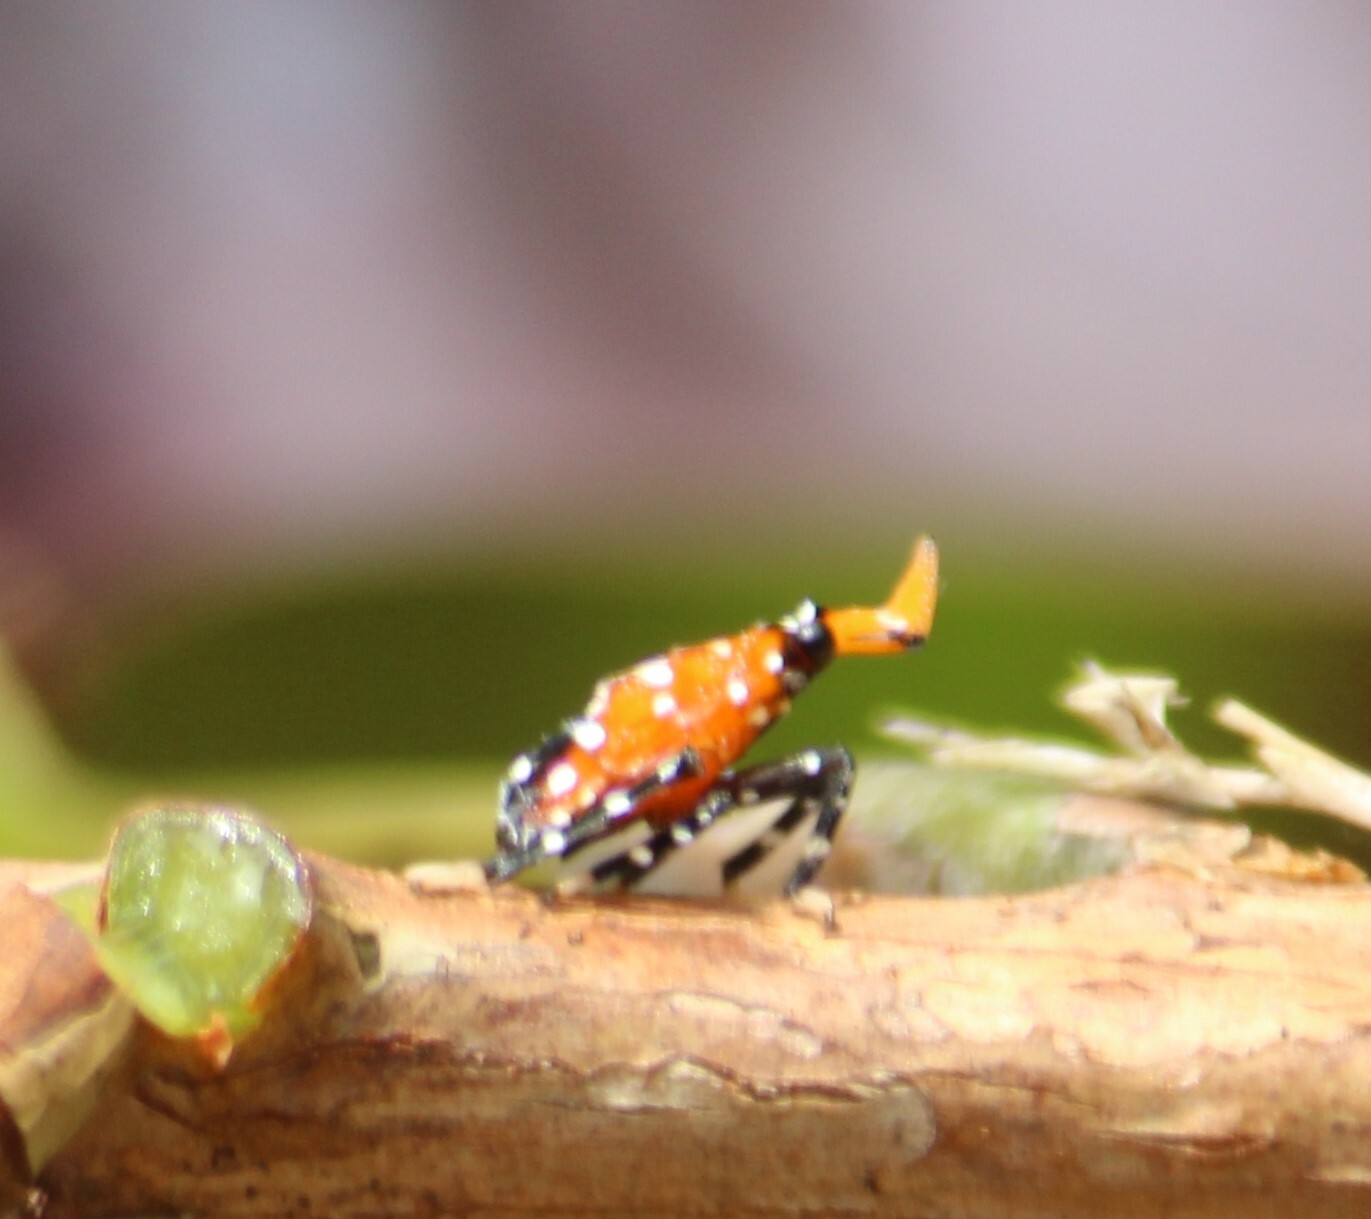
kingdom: Animalia
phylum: Arthropoda
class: Insecta
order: Hemiptera
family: Fulgoridae
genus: Kalidasa
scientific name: Kalidasa lanata
